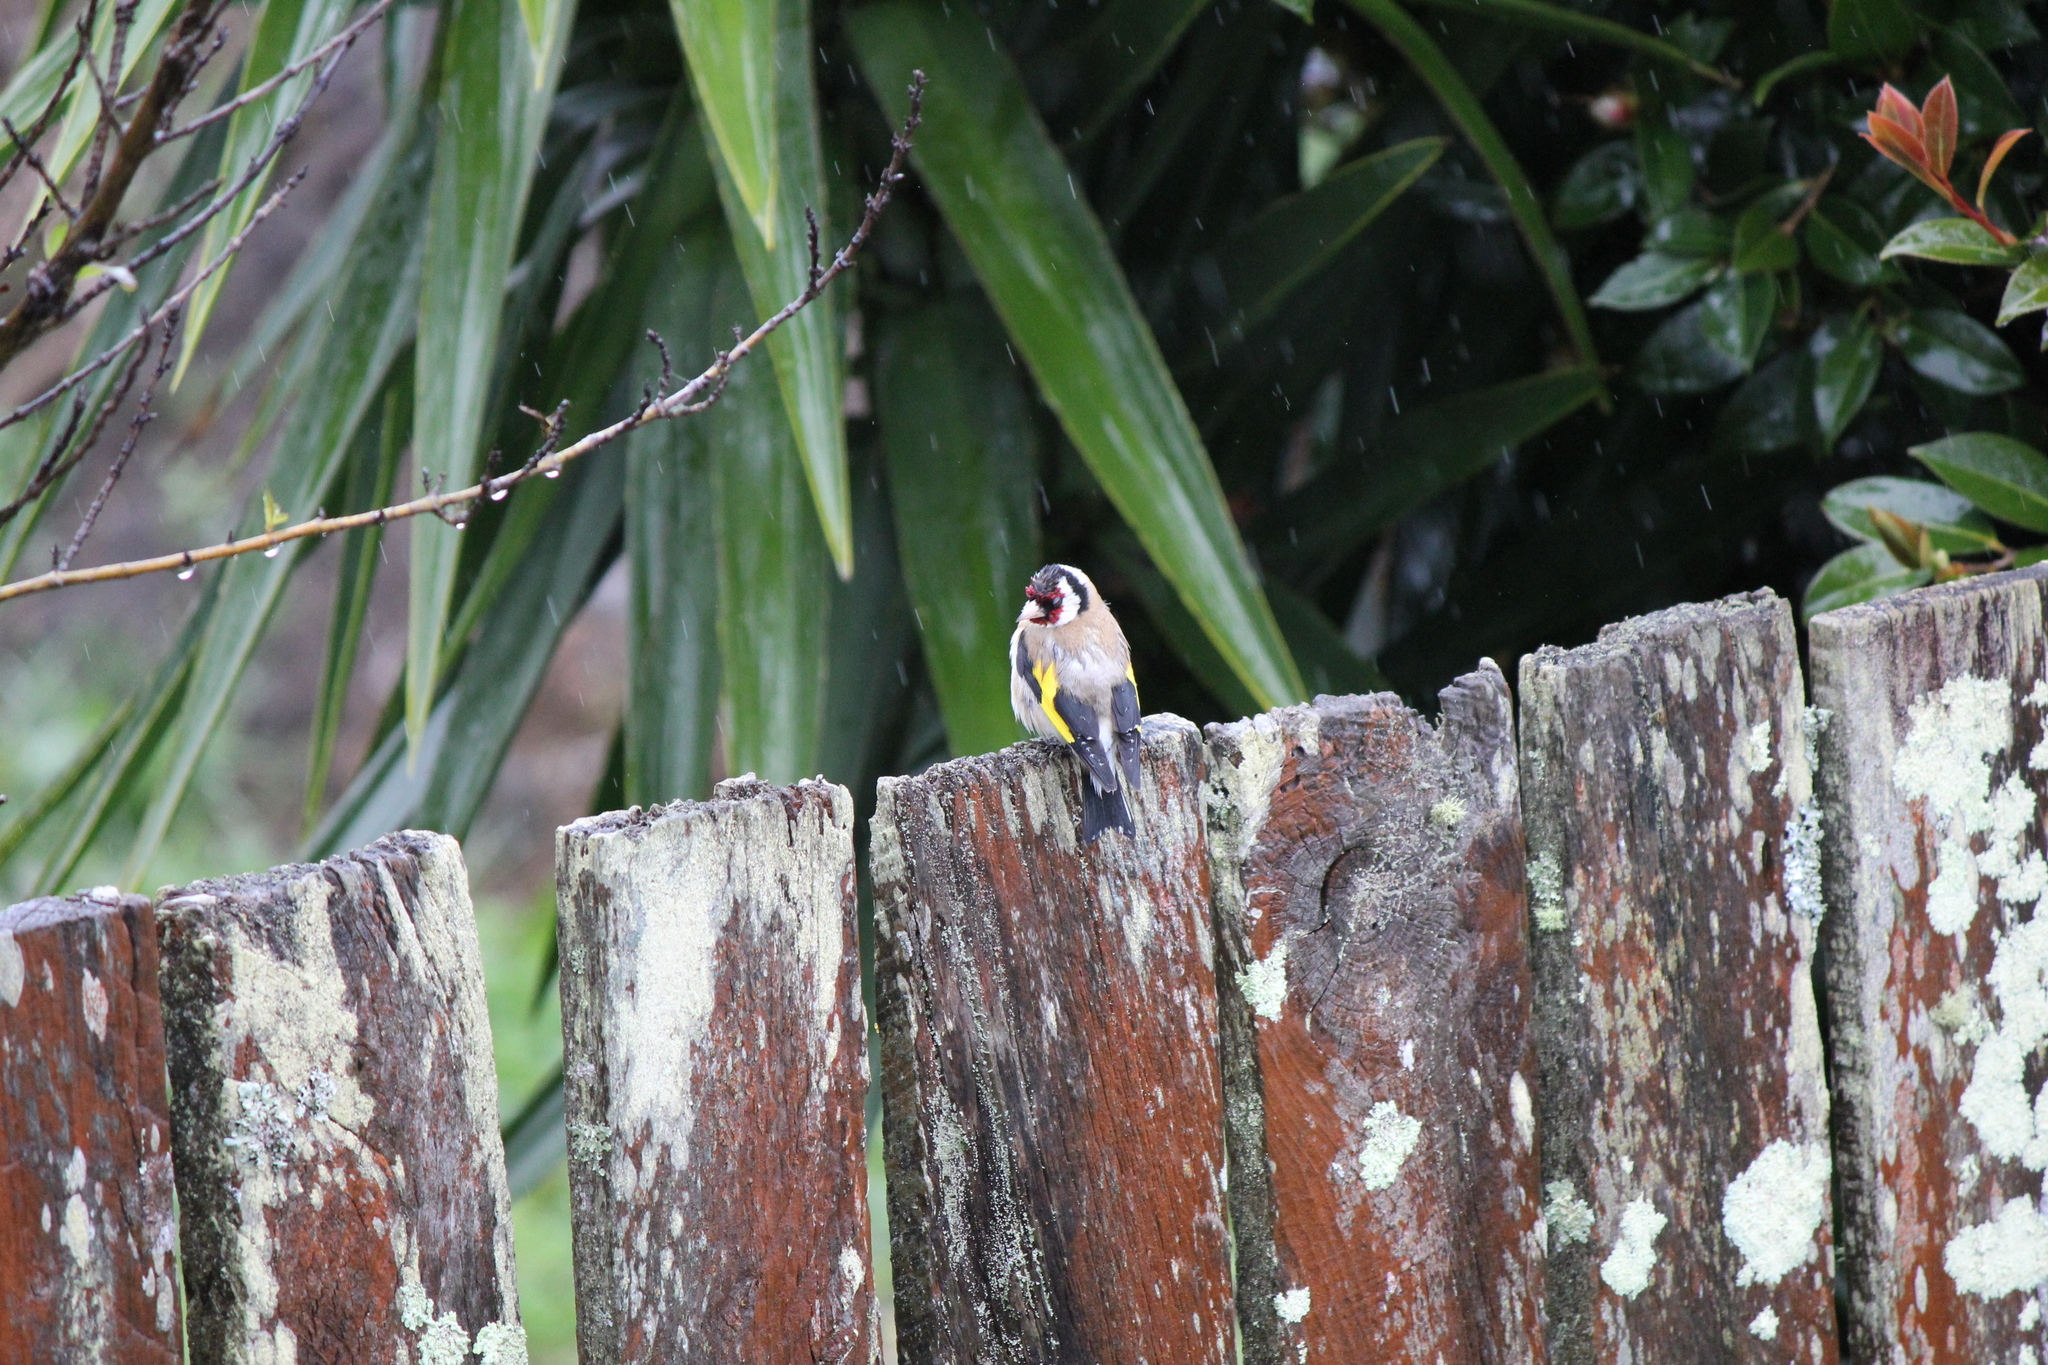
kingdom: Animalia
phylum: Chordata
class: Aves
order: Passeriformes
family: Fringillidae
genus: Carduelis
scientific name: Carduelis carduelis
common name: European goldfinch
